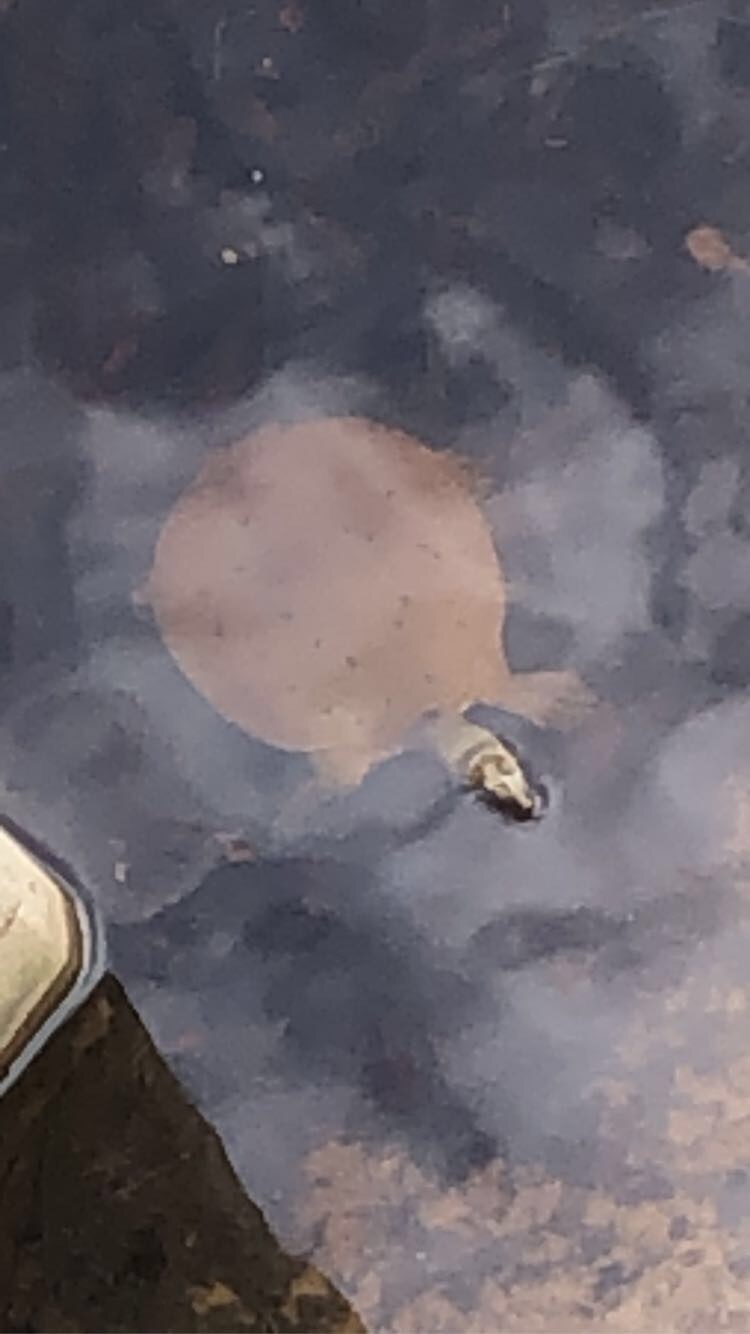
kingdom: Animalia
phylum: Chordata
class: Testudines
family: Trionychidae
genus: Apalone
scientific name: Apalone spinifera
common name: Spiny softshell turtle
